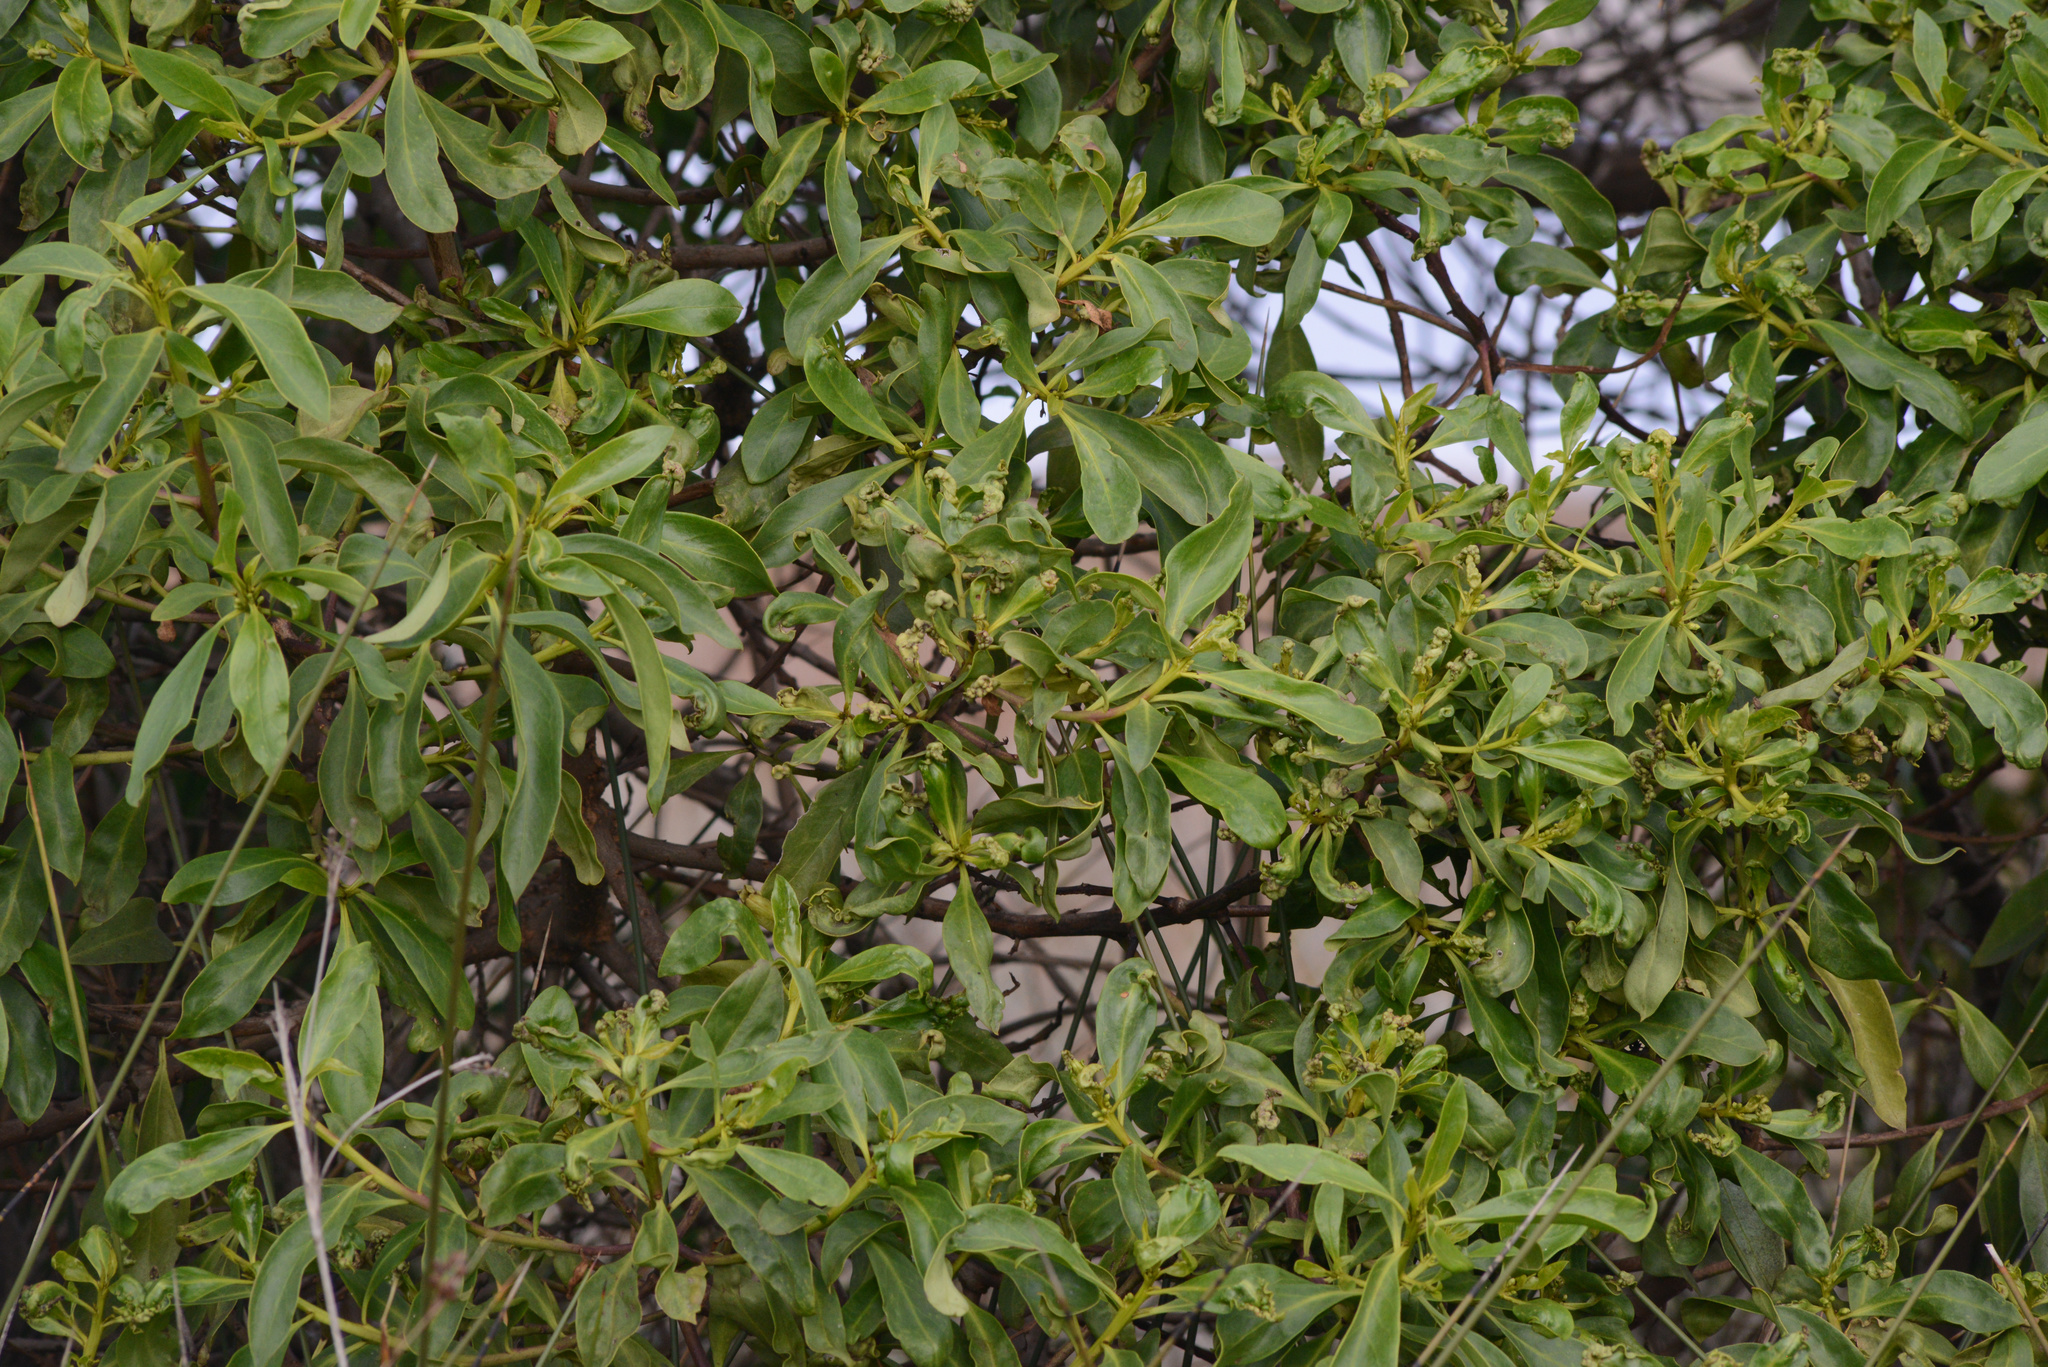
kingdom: Plantae
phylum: Tracheophyta
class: Magnoliopsida
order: Lamiales
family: Scrophulariaceae
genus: Myoporum
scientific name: Myoporum laetum
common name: Ngaio tree
